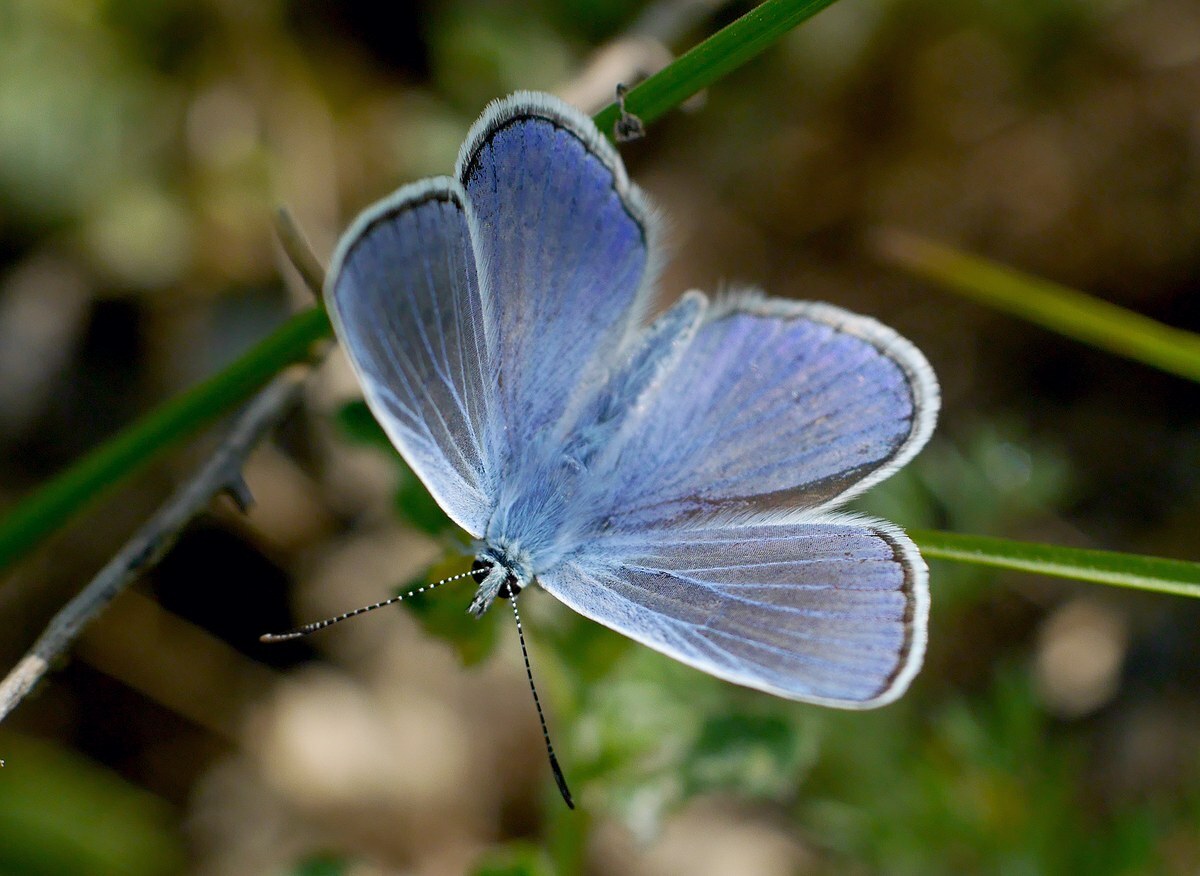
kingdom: Animalia
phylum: Arthropoda
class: Insecta
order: Lepidoptera
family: Lycaenidae
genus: Polyommatus
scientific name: Polyommatus icarus
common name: Common blue
